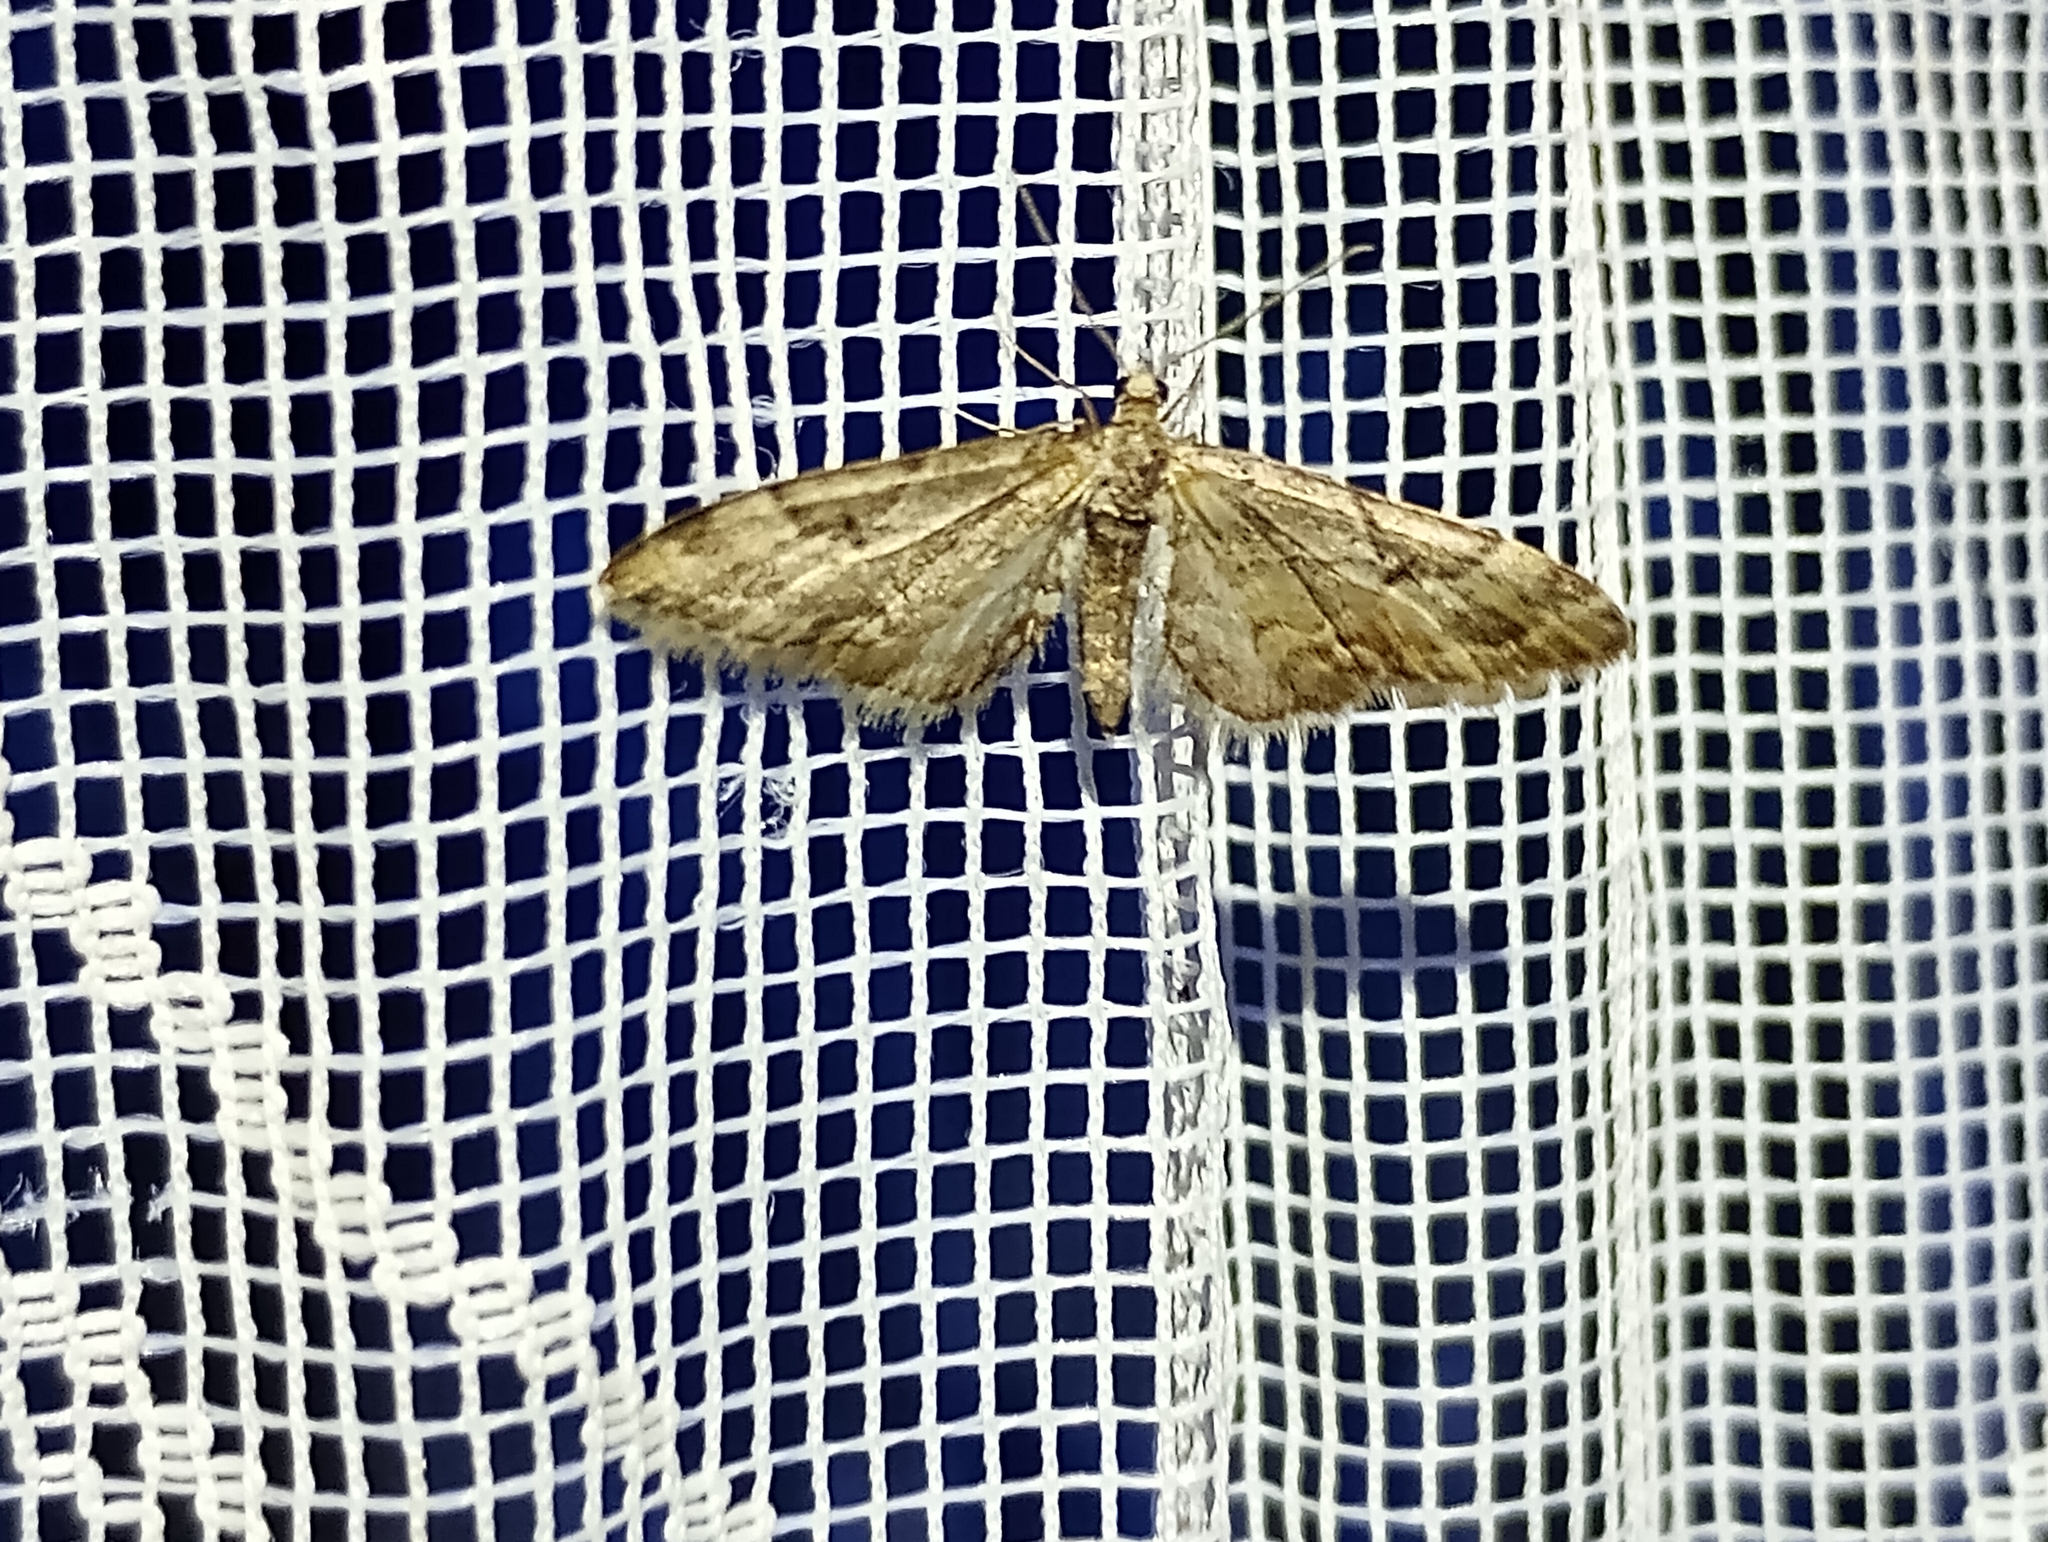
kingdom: Animalia
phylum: Arthropoda
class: Insecta
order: Lepidoptera
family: Geometridae
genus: Eupithecia
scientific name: Eupithecia lanceata
